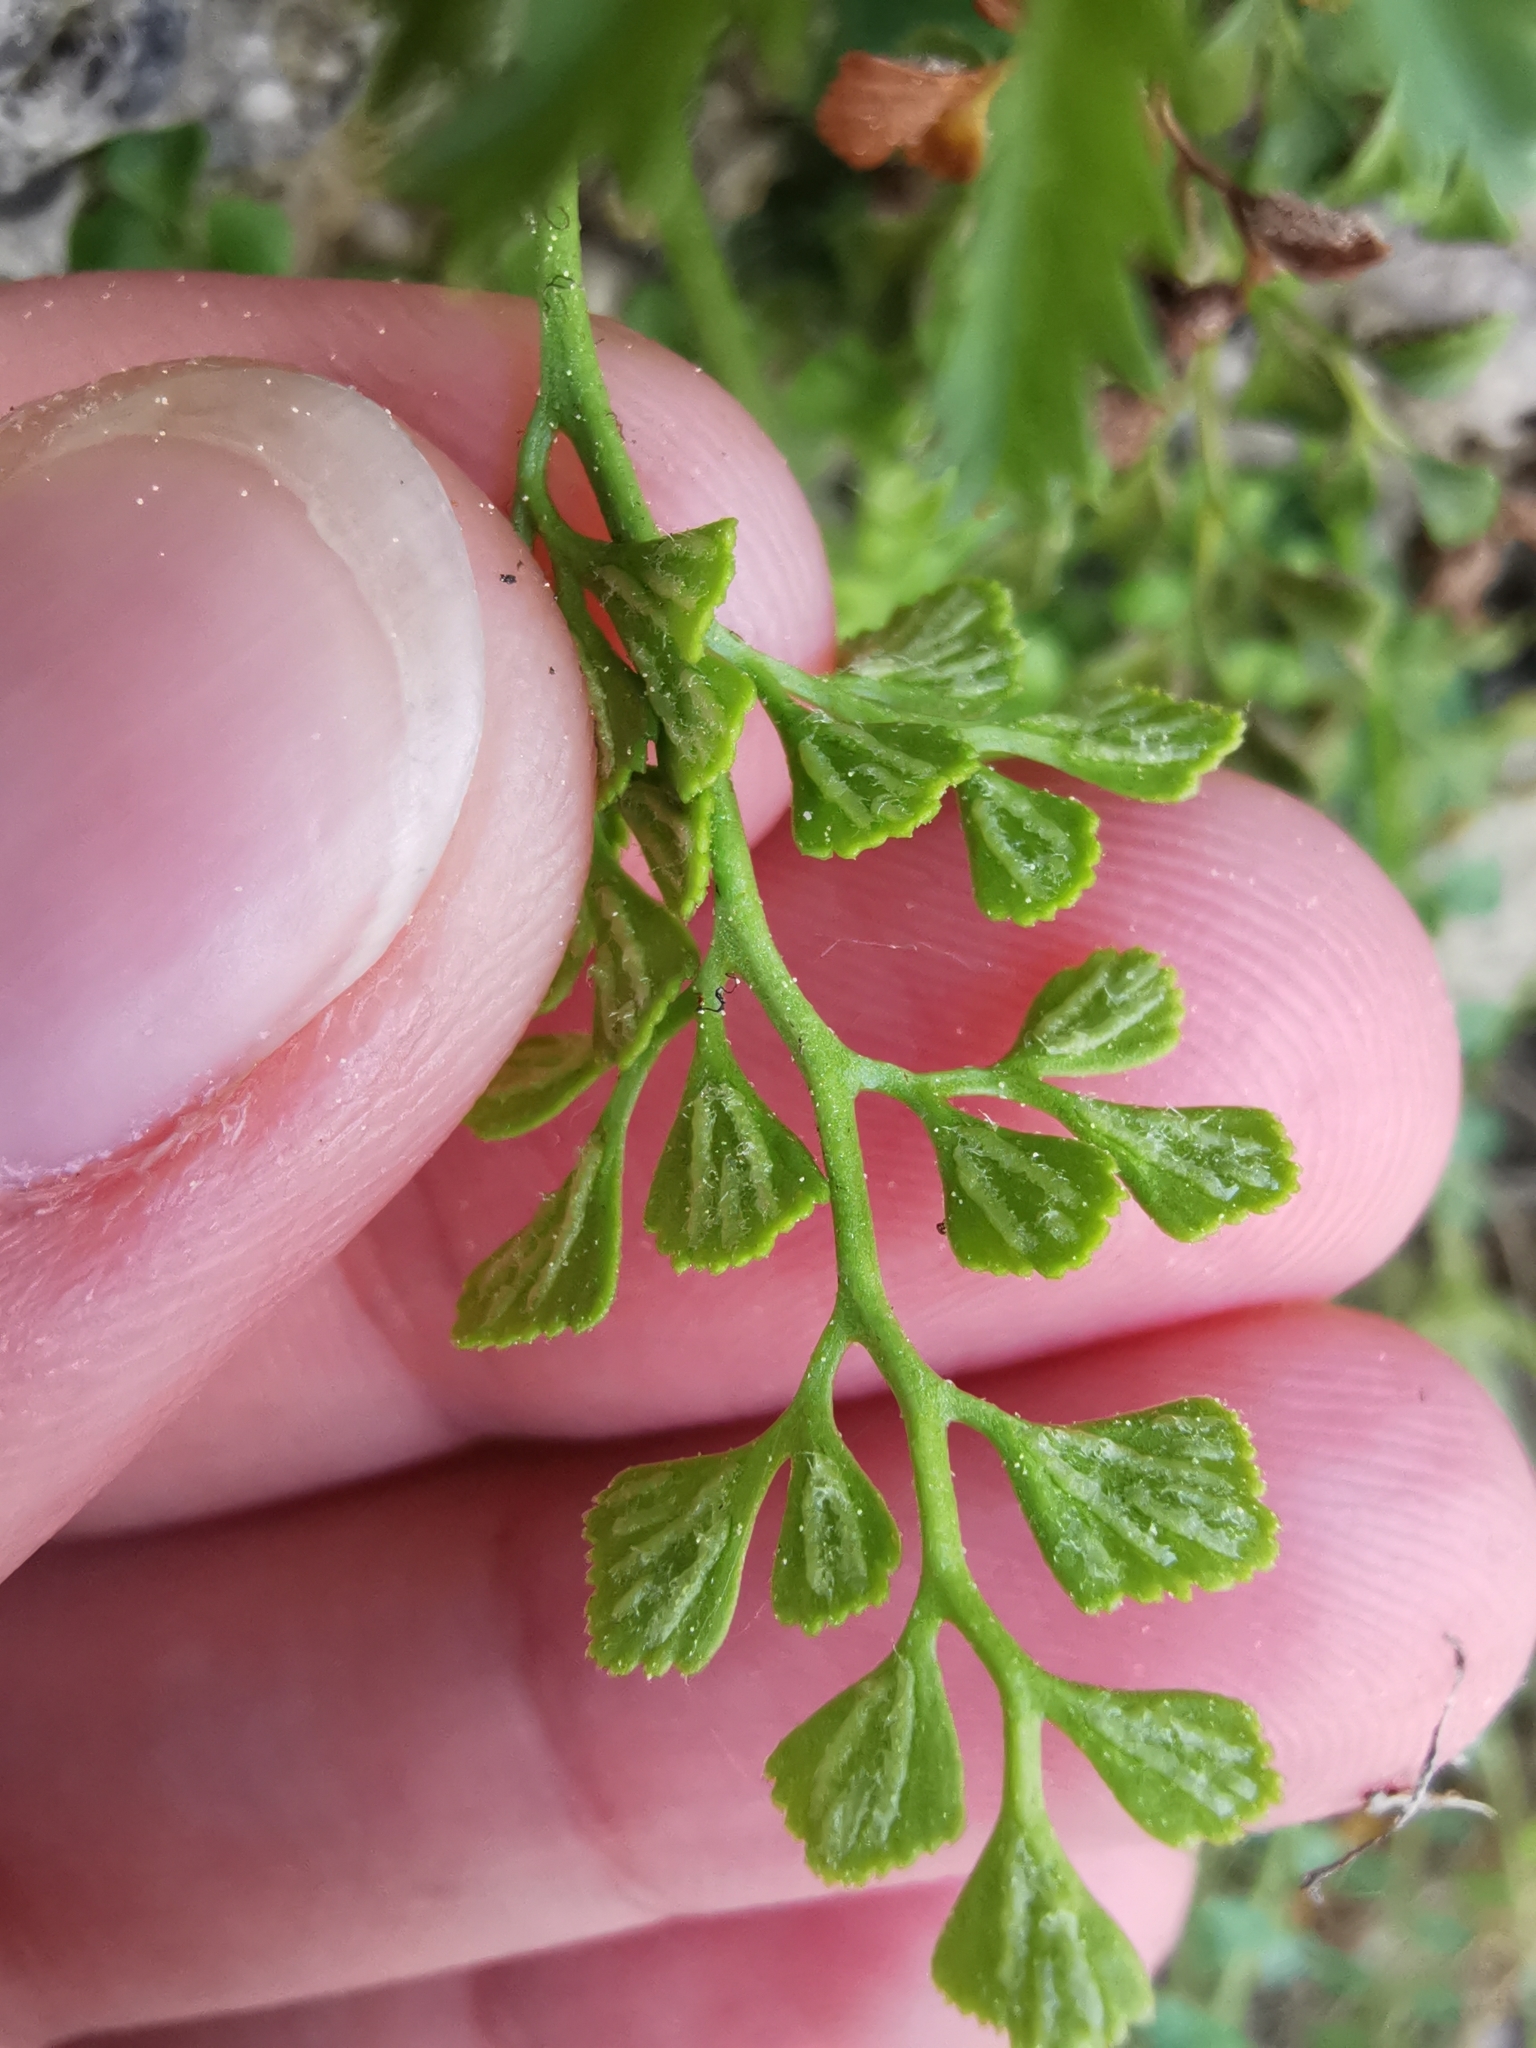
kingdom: Plantae
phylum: Tracheophyta
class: Polypodiopsida
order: Polypodiales
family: Aspleniaceae
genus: Asplenium
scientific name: Asplenium ruta-muraria
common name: Wall-rue
